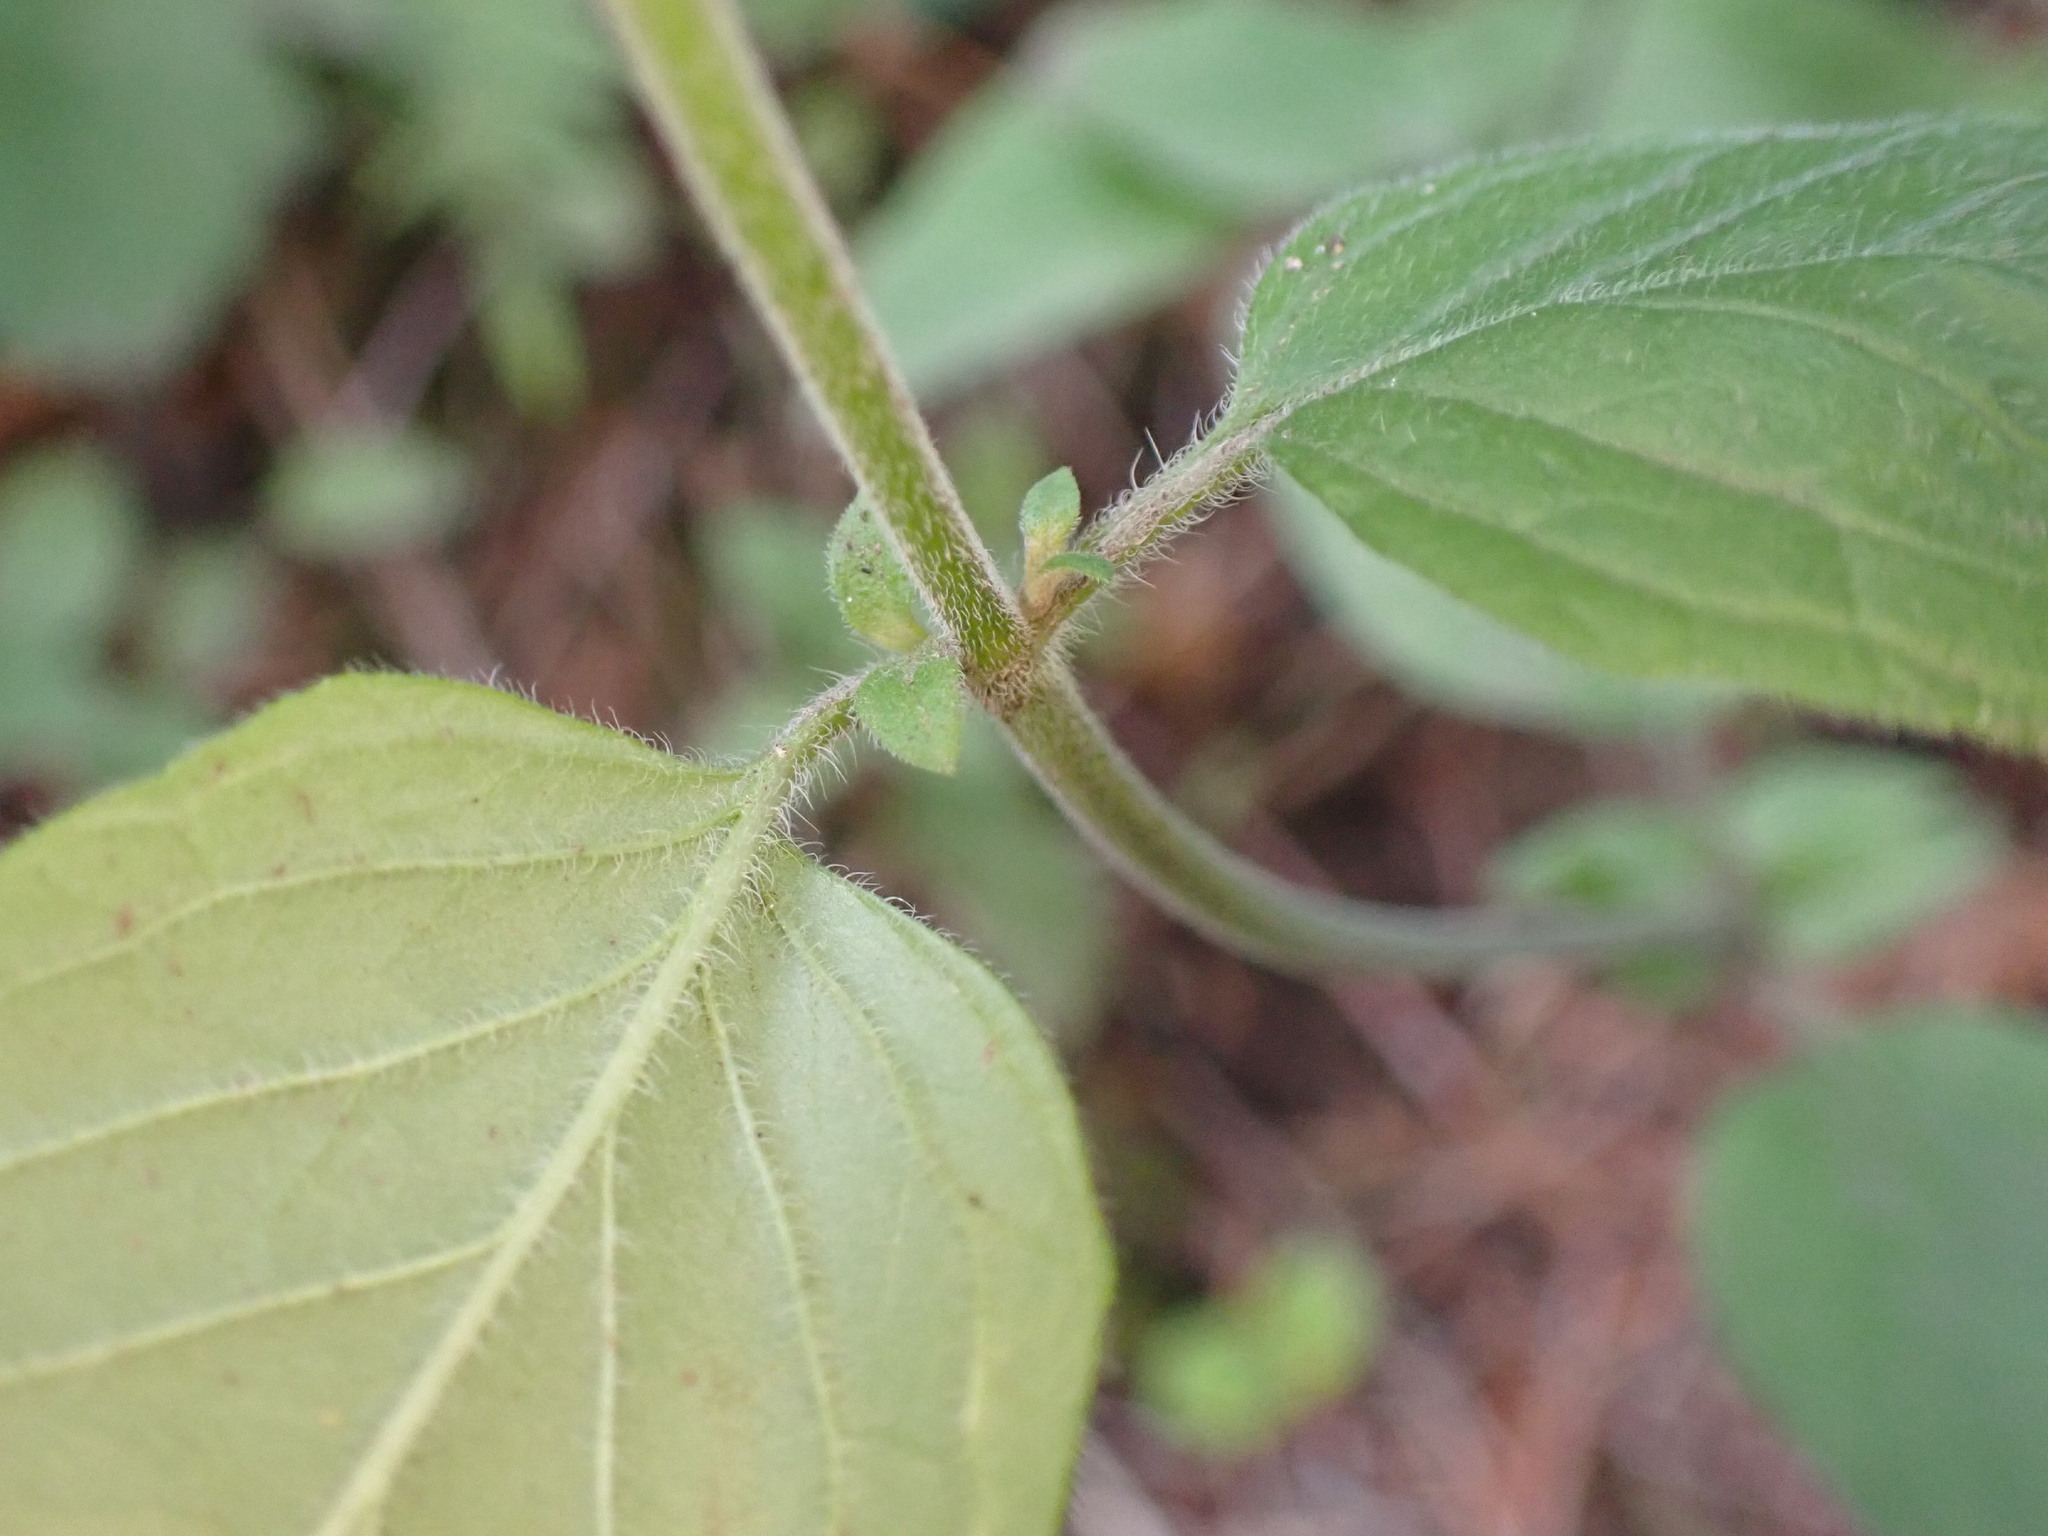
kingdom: Plantae
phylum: Tracheophyta
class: Magnoliopsida
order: Lamiales
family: Lamiaceae
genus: Clinopodium
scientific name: Clinopodium vulgare
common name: Wild basil
